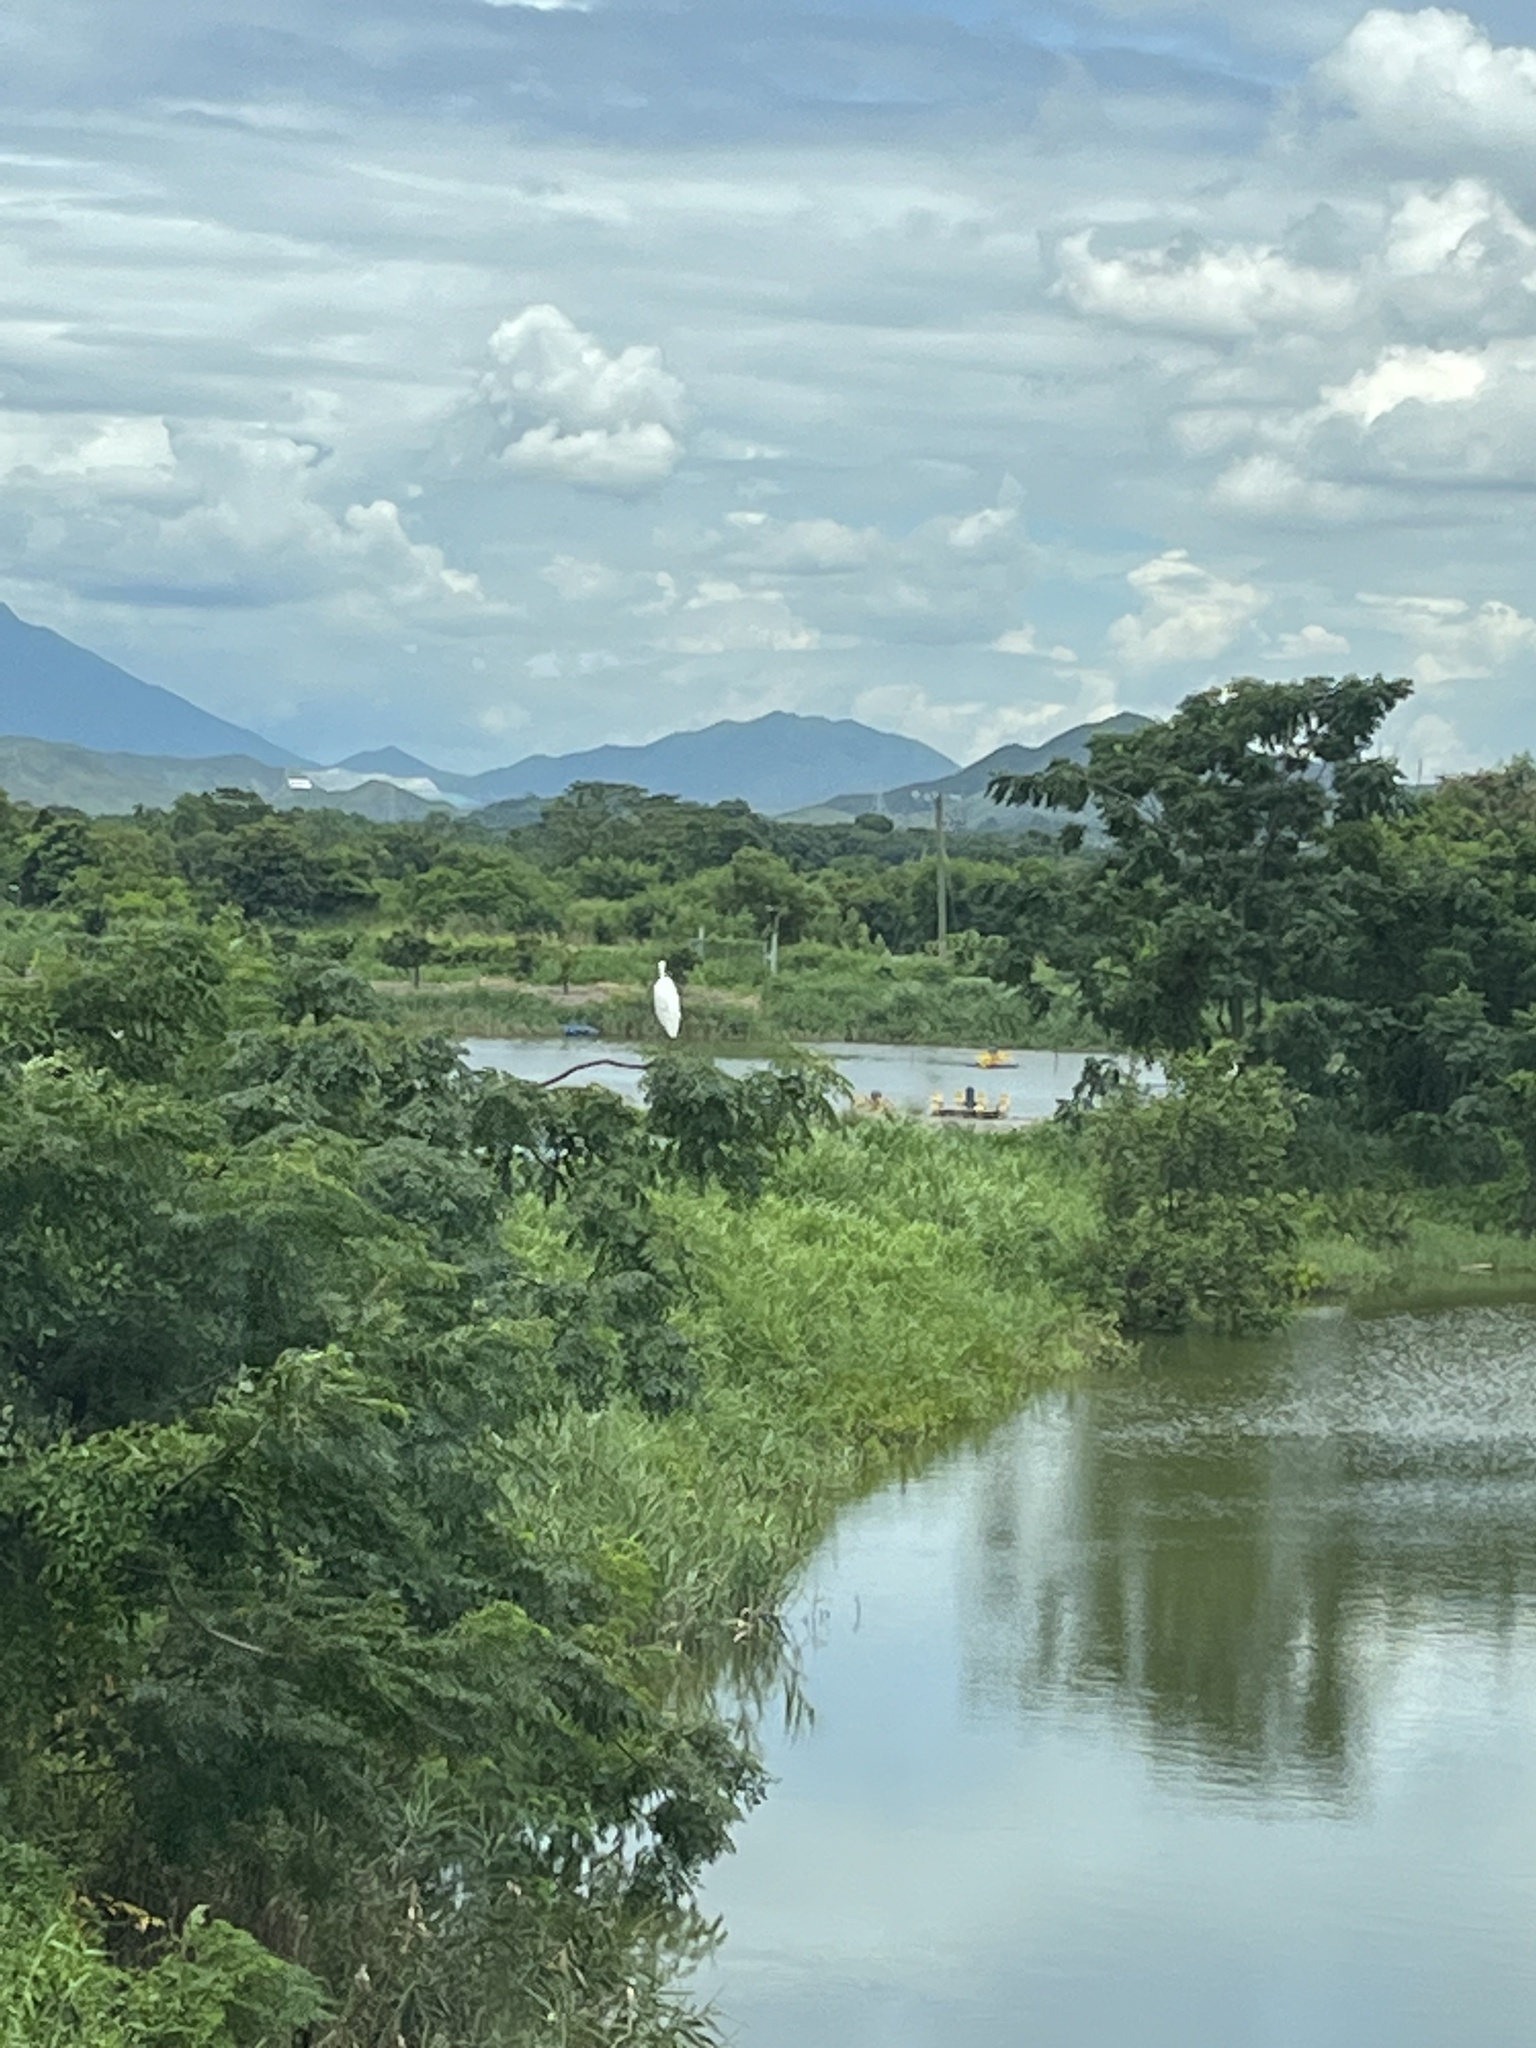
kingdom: Animalia
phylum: Chordata
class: Aves
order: Pelecaniformes
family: Ardeidae
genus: Ardea
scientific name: Ardea alba
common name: Great egret
